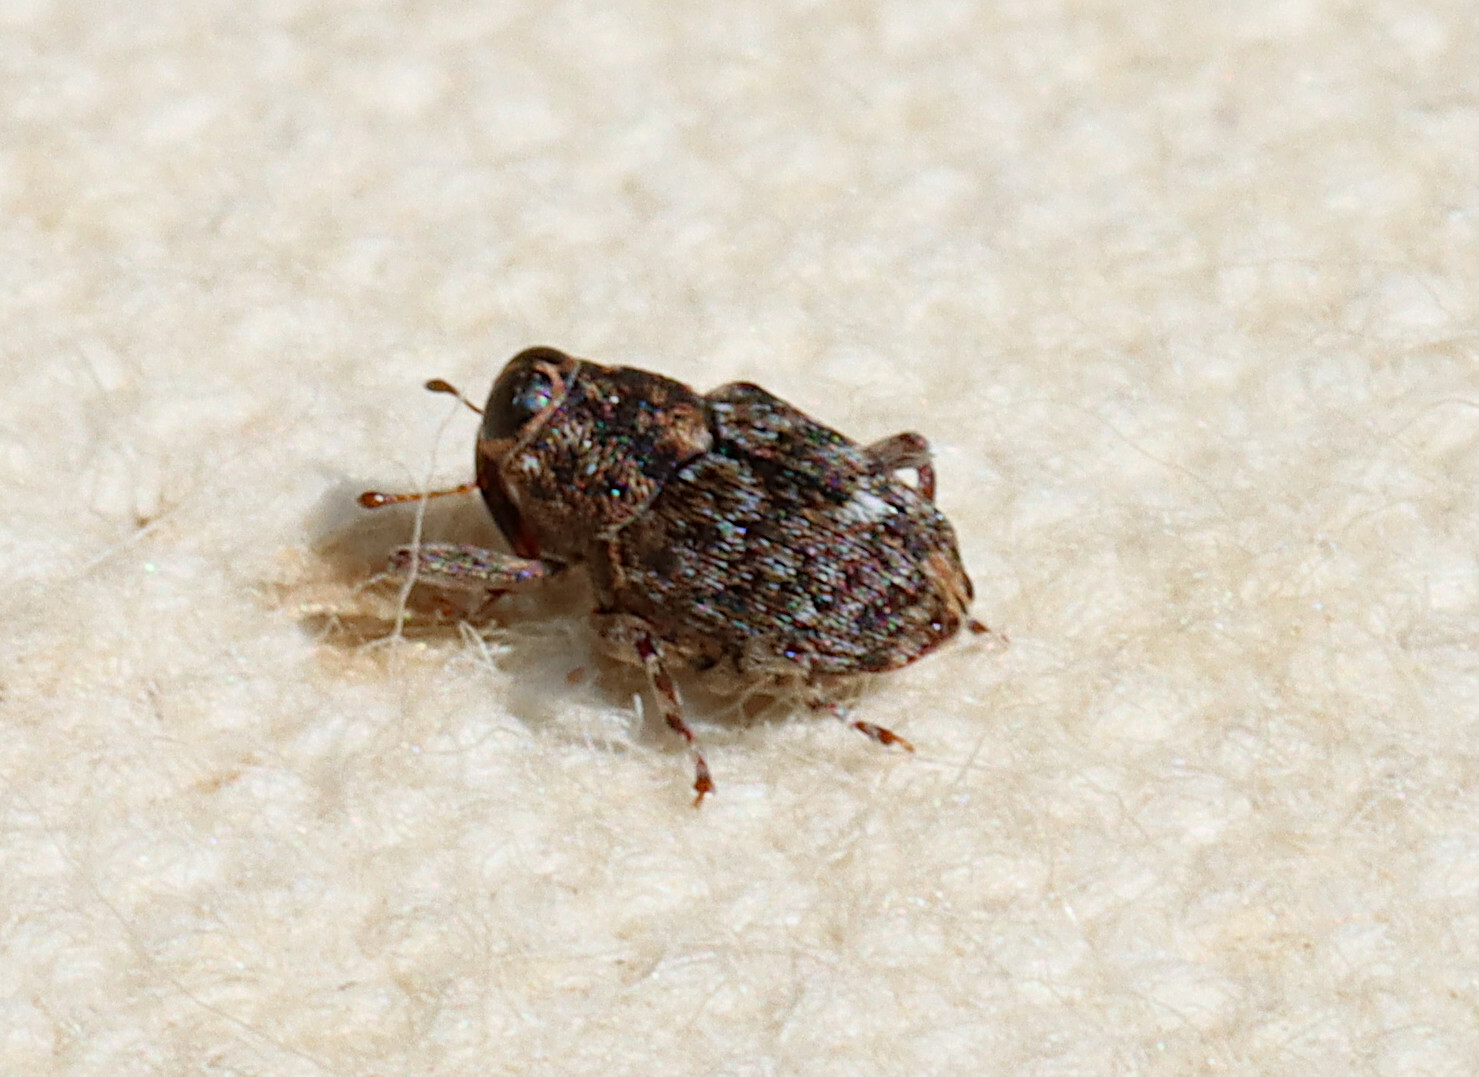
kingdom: Animalia
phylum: Arthropoda
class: Insecta
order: Coleoptera
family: Curculionidae
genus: Lechriops
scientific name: Lechriops oculatus
